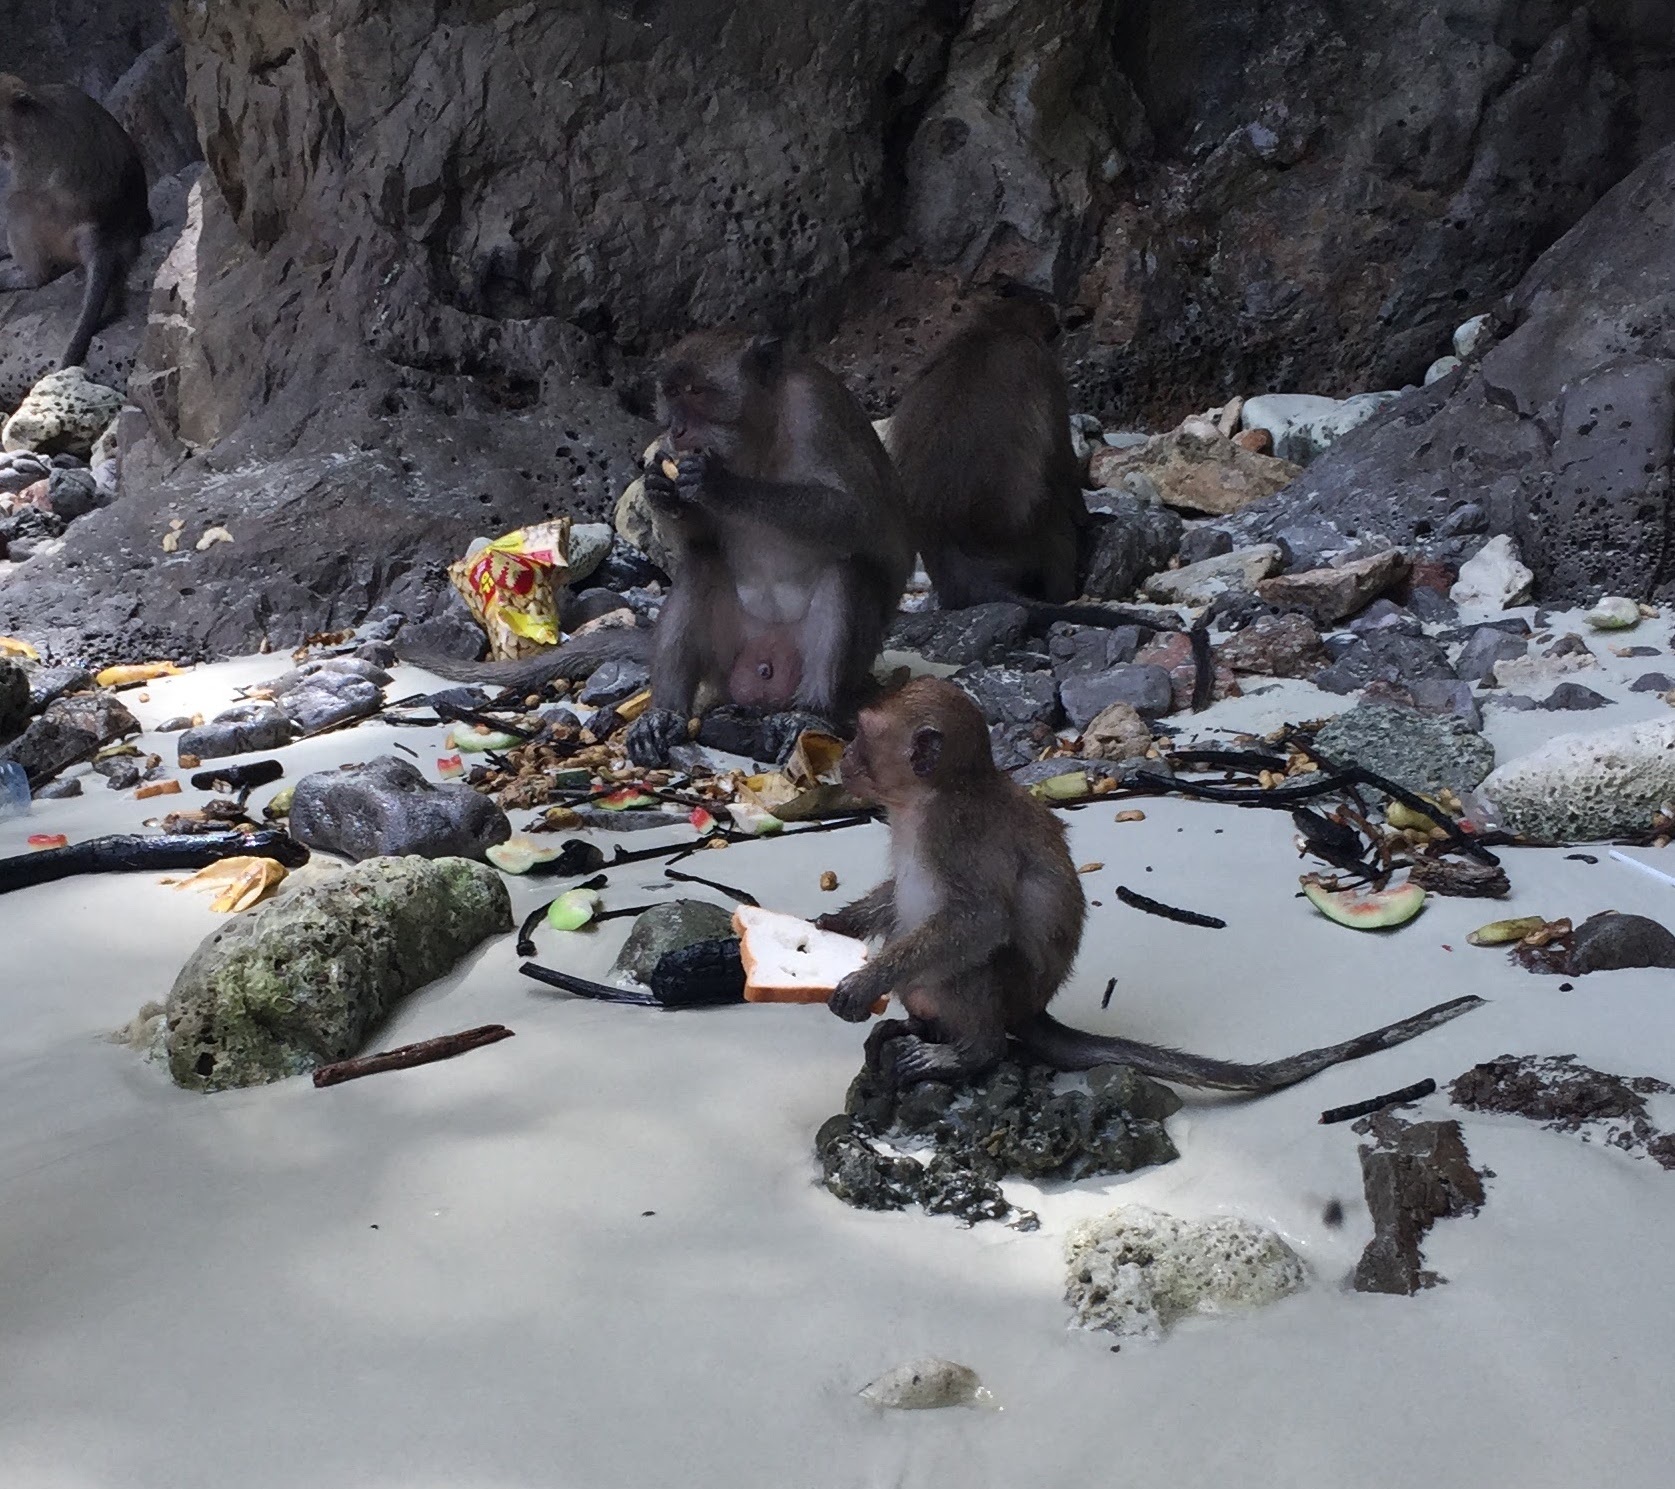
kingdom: Animalia
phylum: Chordata
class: Mammalia
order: Primates
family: Cercopithecidae
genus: Macaca
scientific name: Macaca fascicularis
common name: Crab-eating macaque
